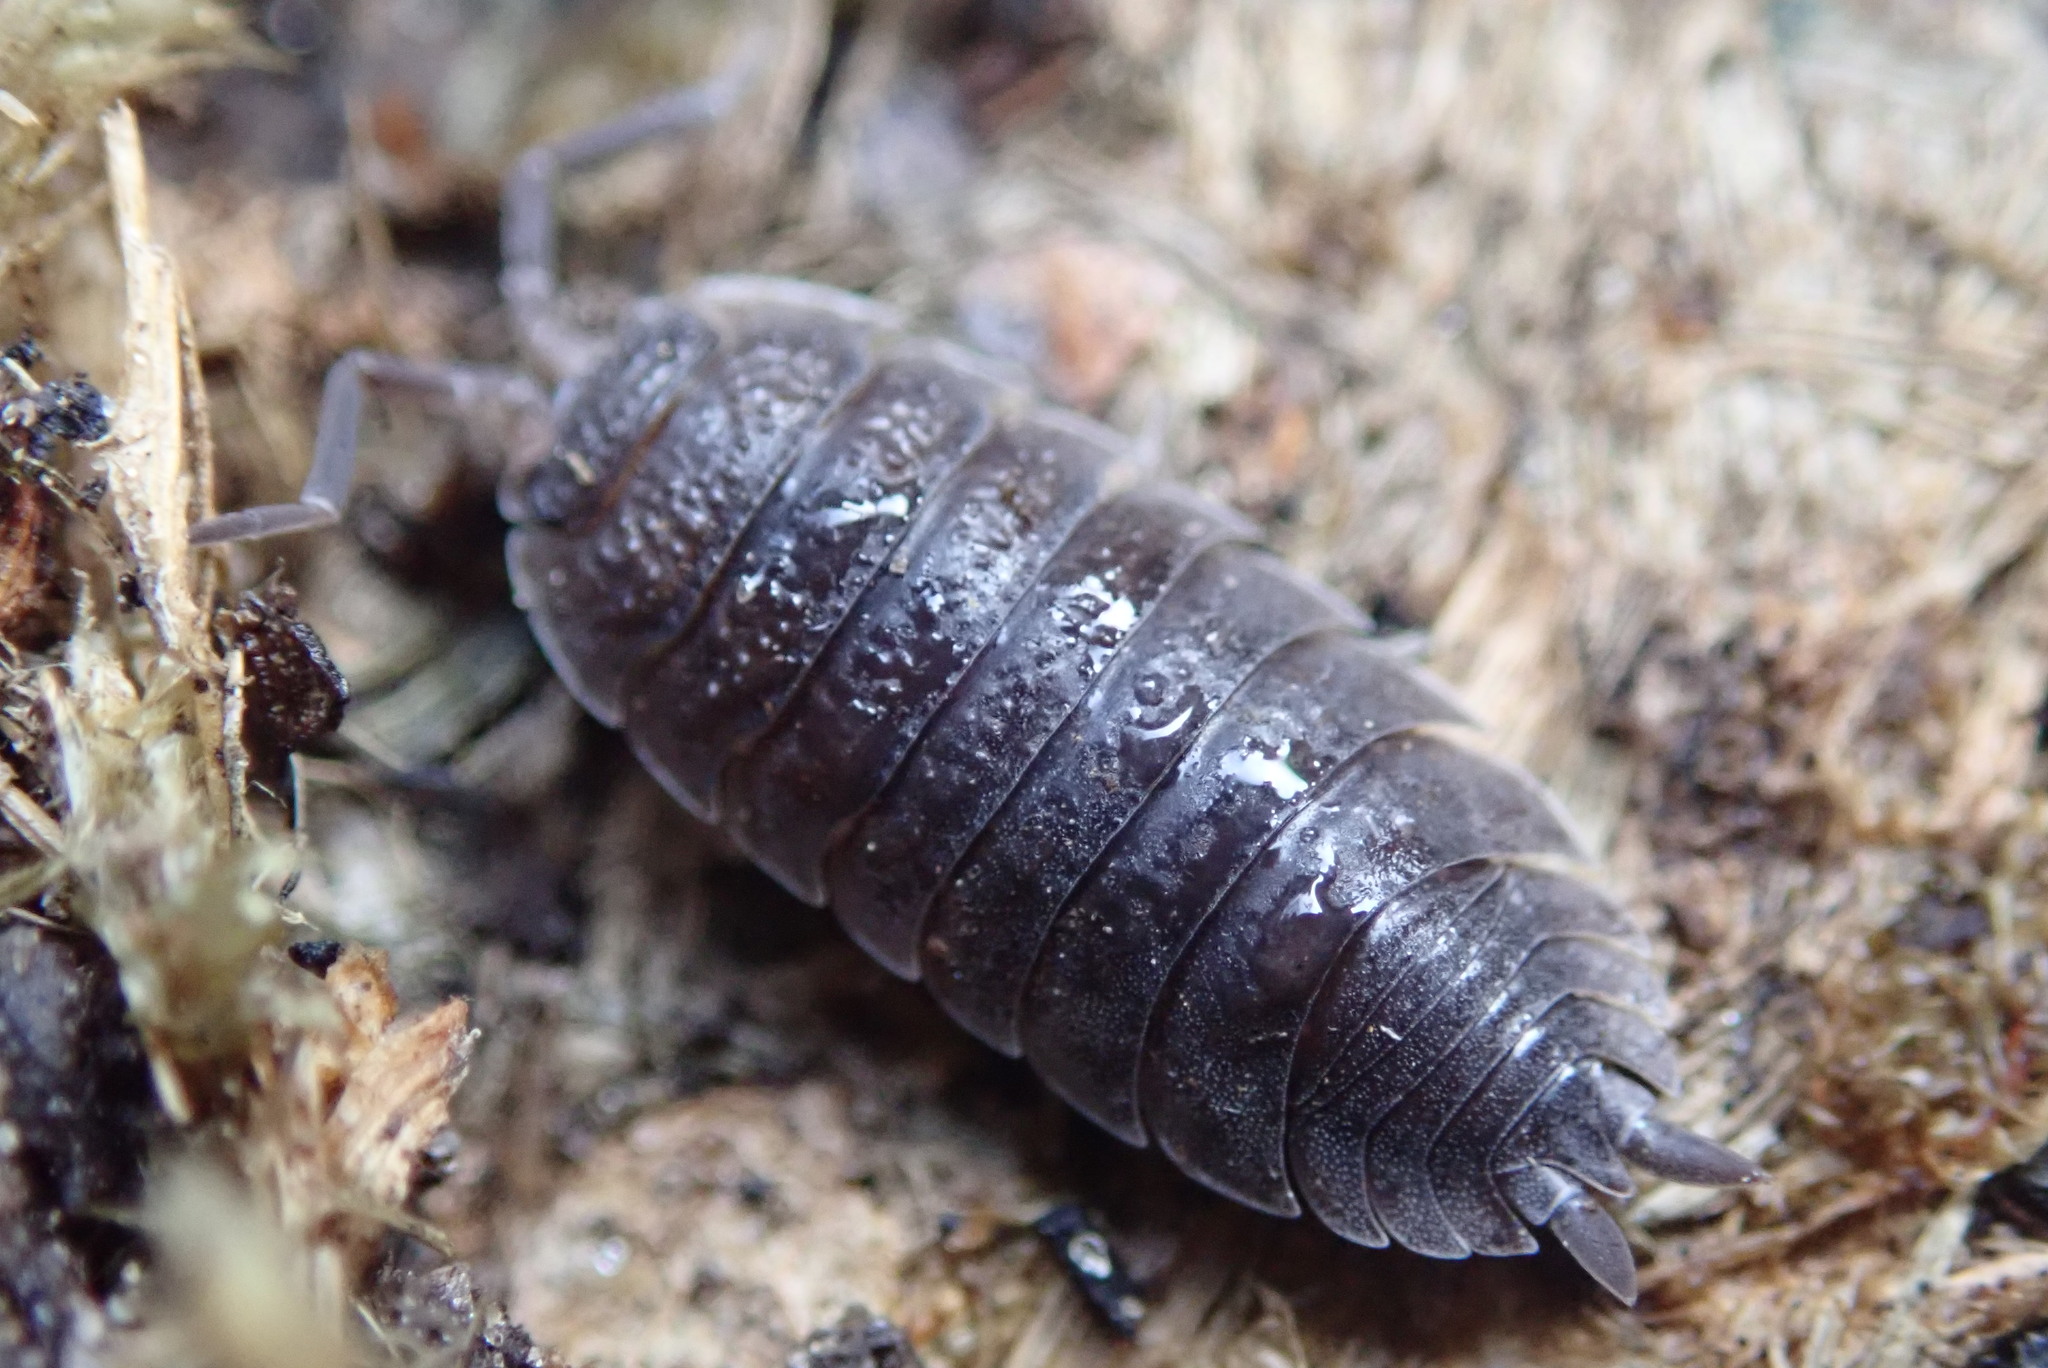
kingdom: Animalia
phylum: Arthropoda
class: Malacostraca
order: Isopoda
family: Porcellionidae
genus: Porcellio
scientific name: Porcellio scaber
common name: Common rough woodlouse
